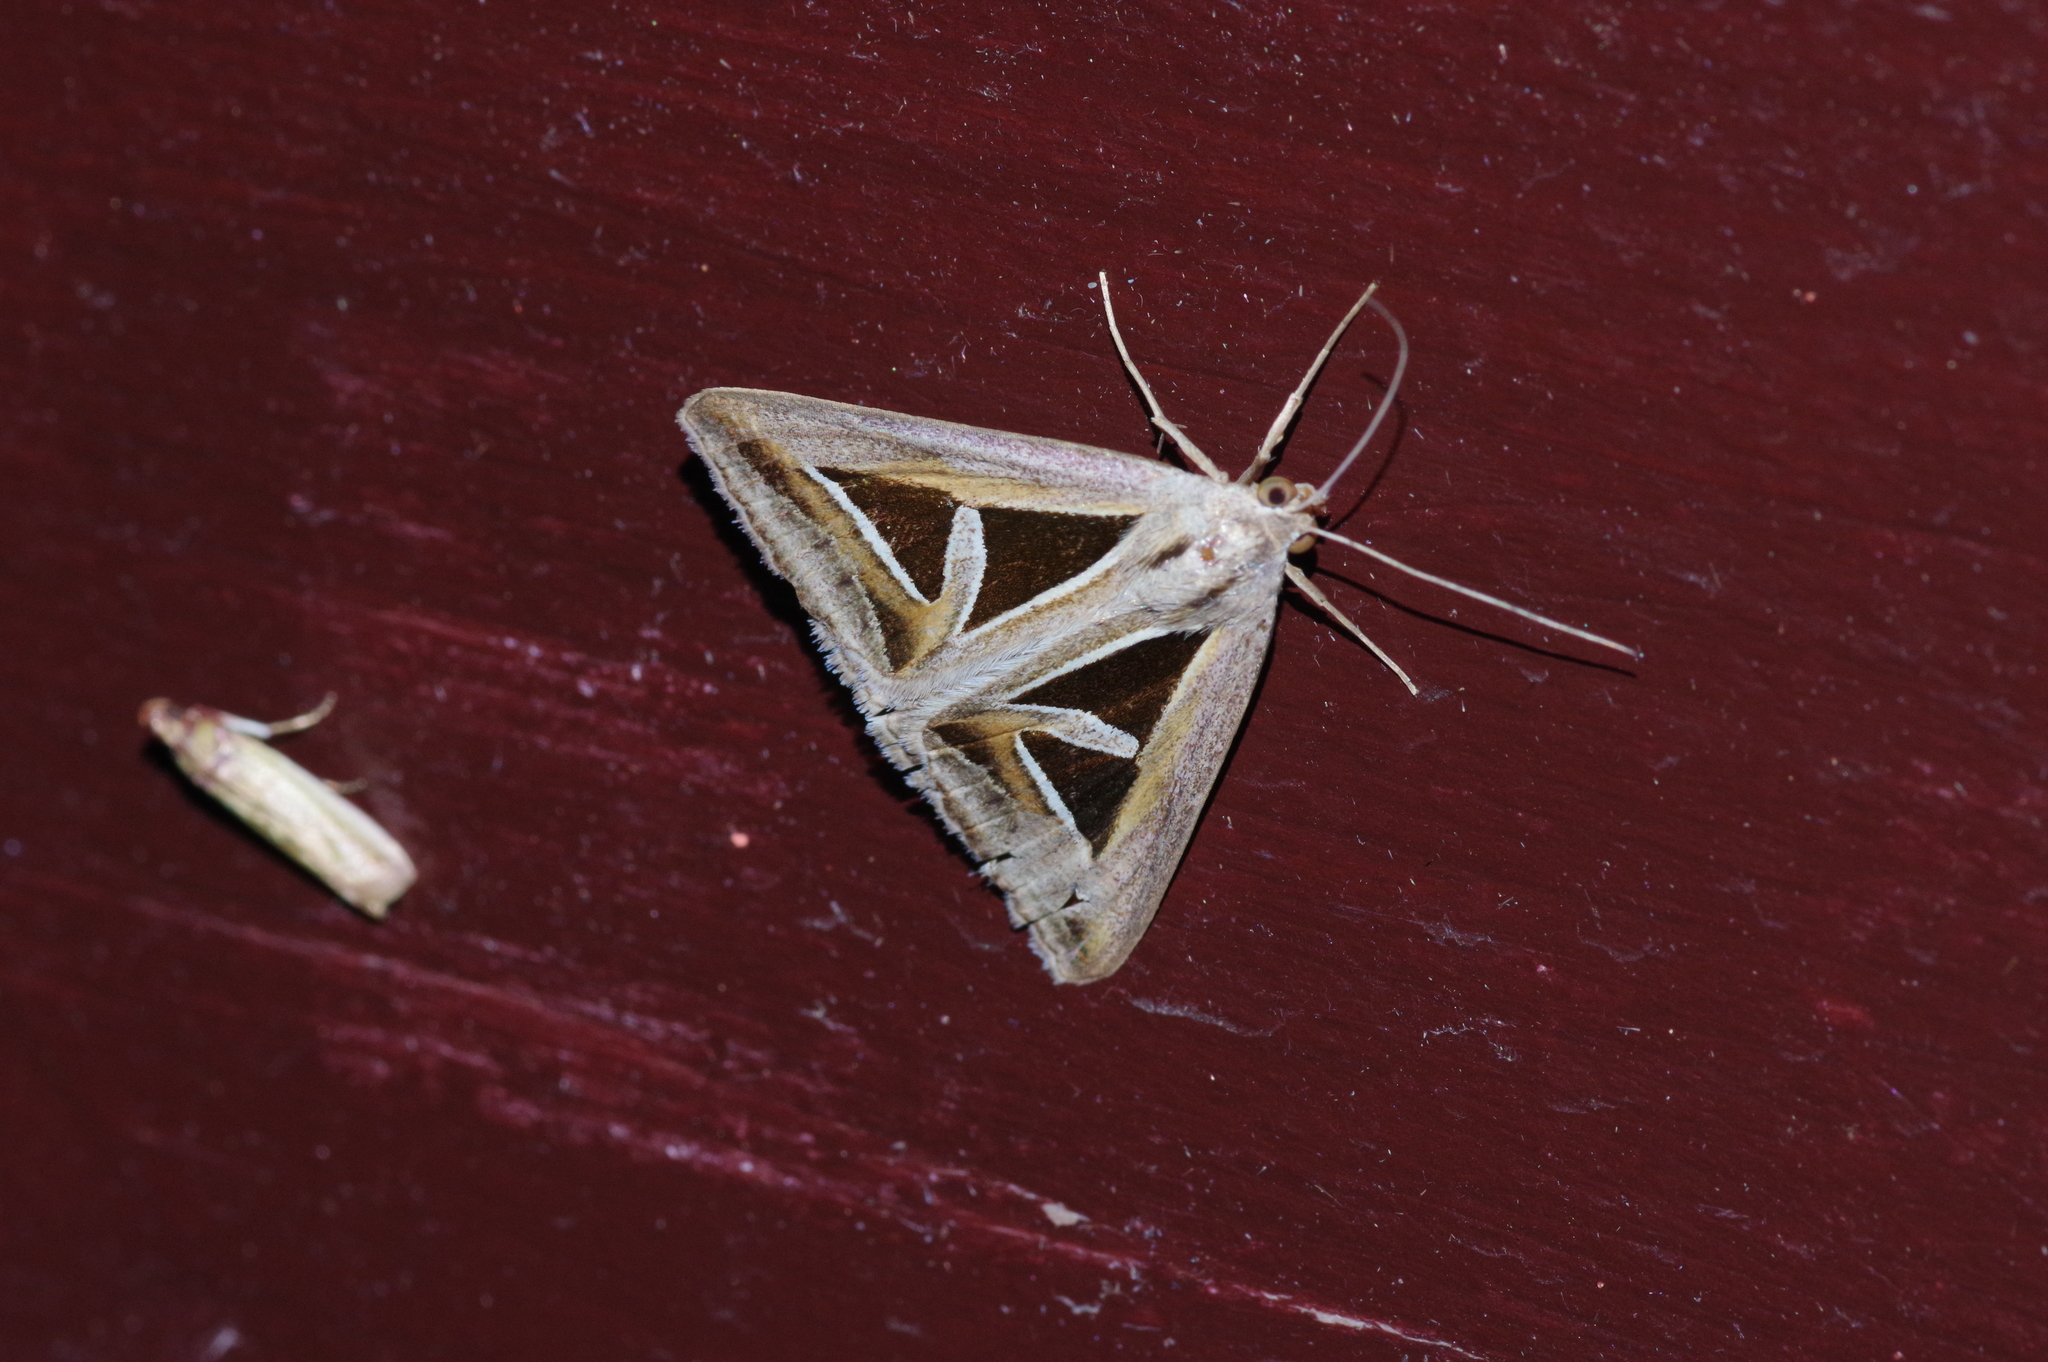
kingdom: Animalia
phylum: Arthropoda
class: Insecta
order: Lepidoptera
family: Erebidae
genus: Trigonodes
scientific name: Trigonodes hyppasia
